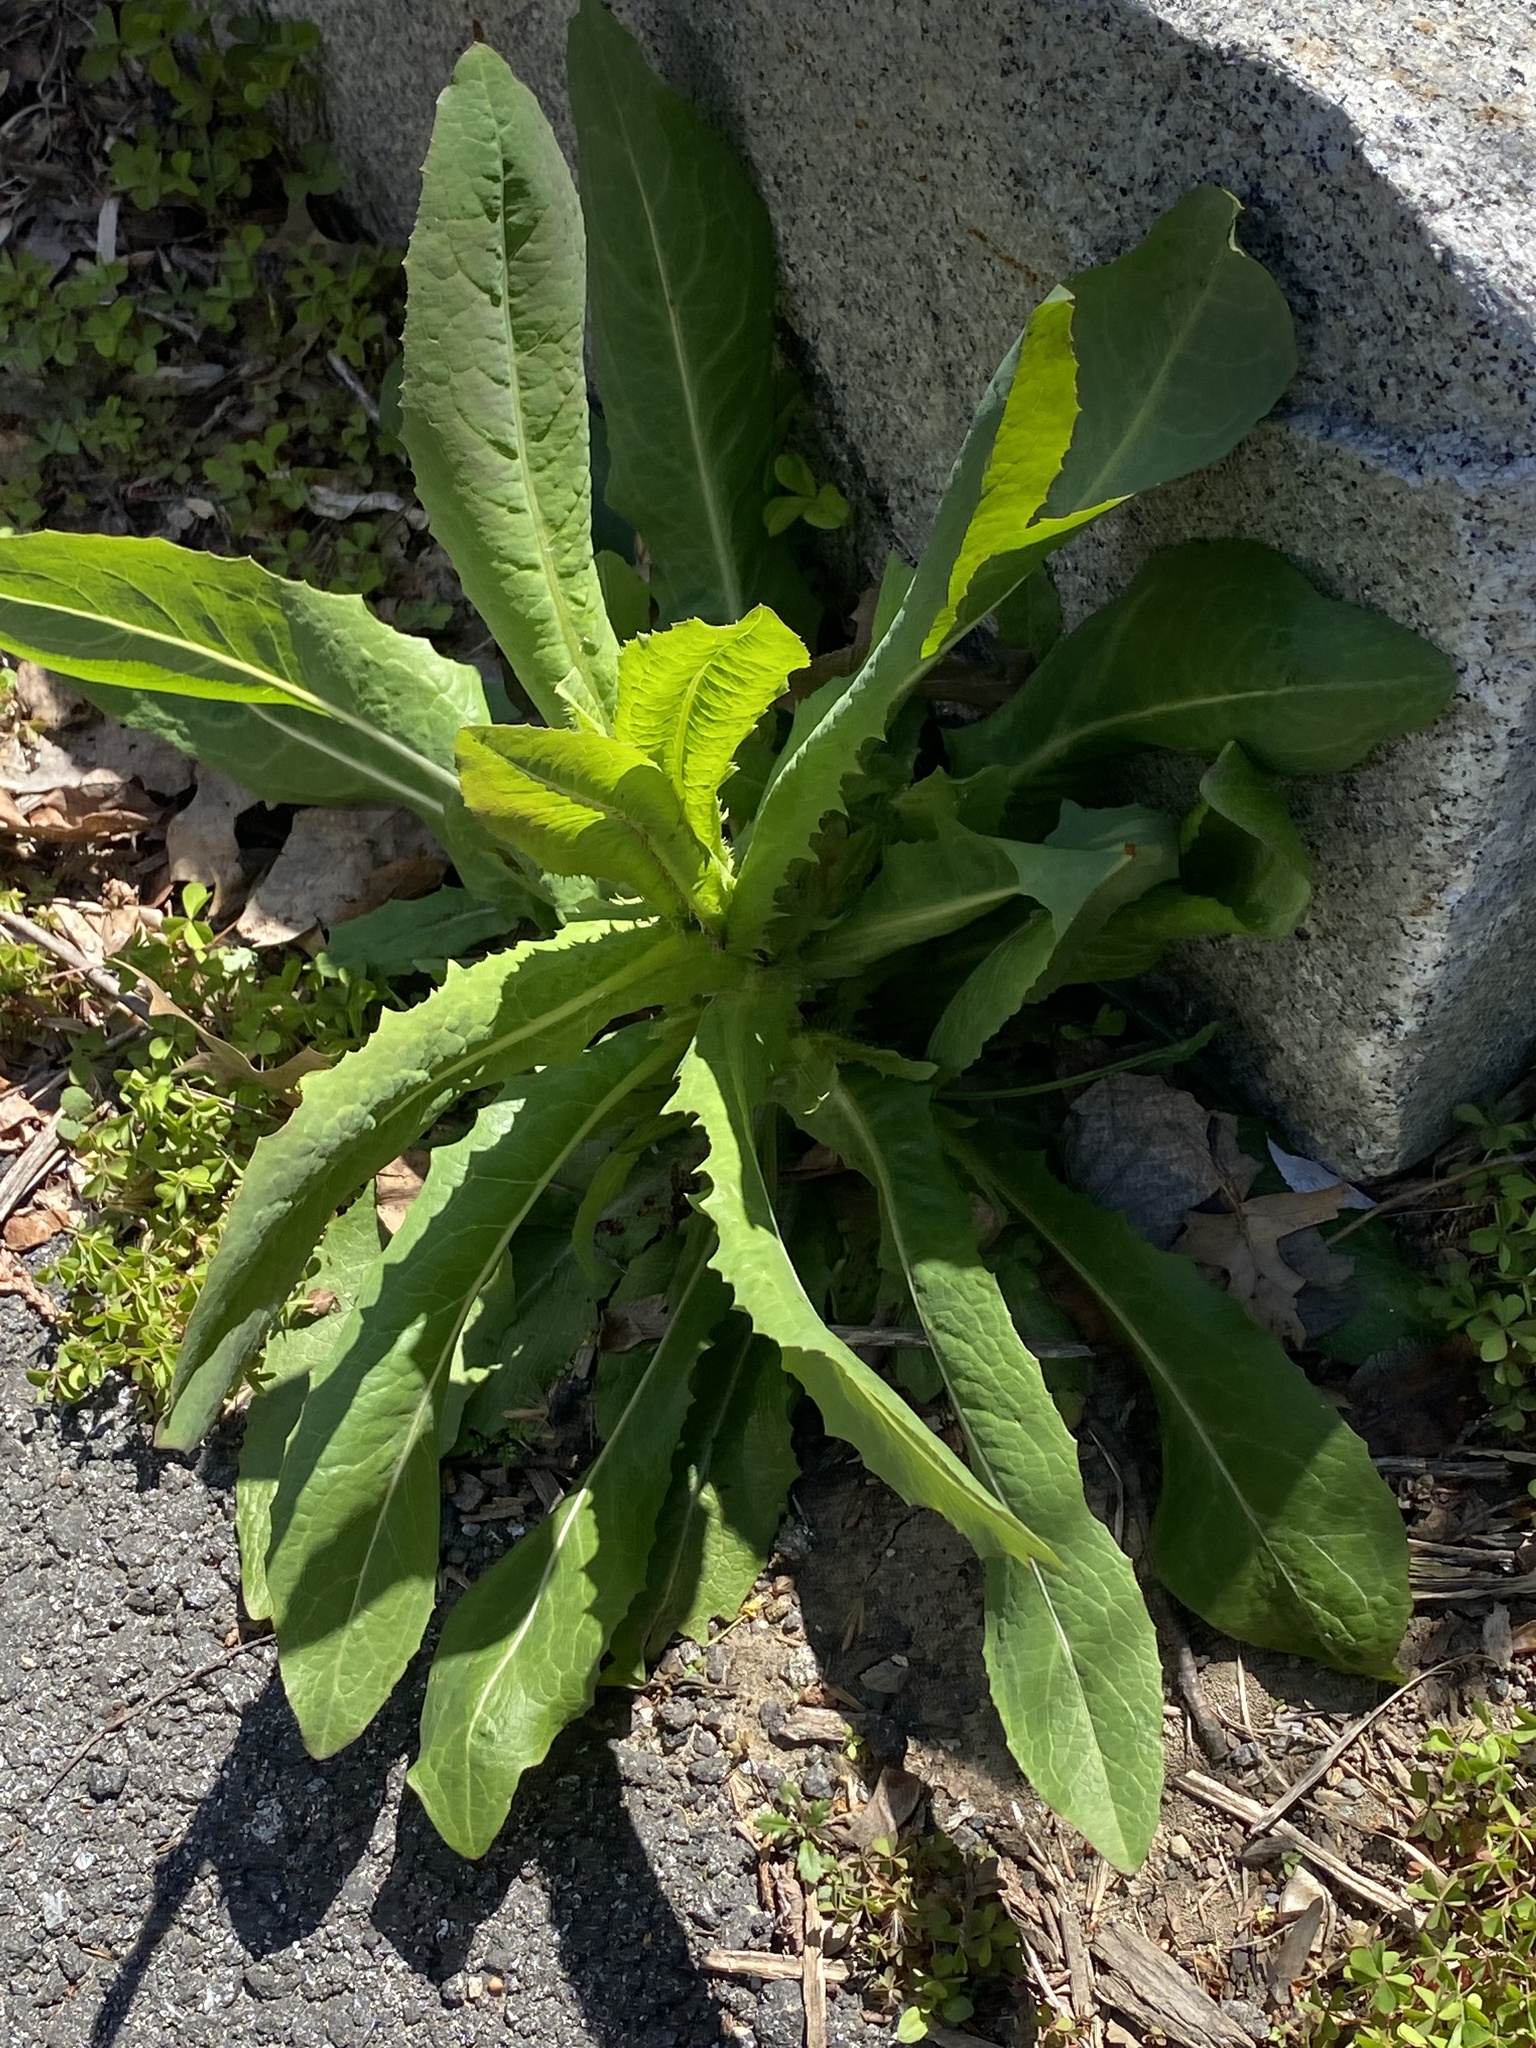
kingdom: Plantae
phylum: Tracheophyta
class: Magnoliopsida
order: Asterales
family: Asteraceae
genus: Lactuca
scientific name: Lactuca serriola
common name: Prickly lettuce
